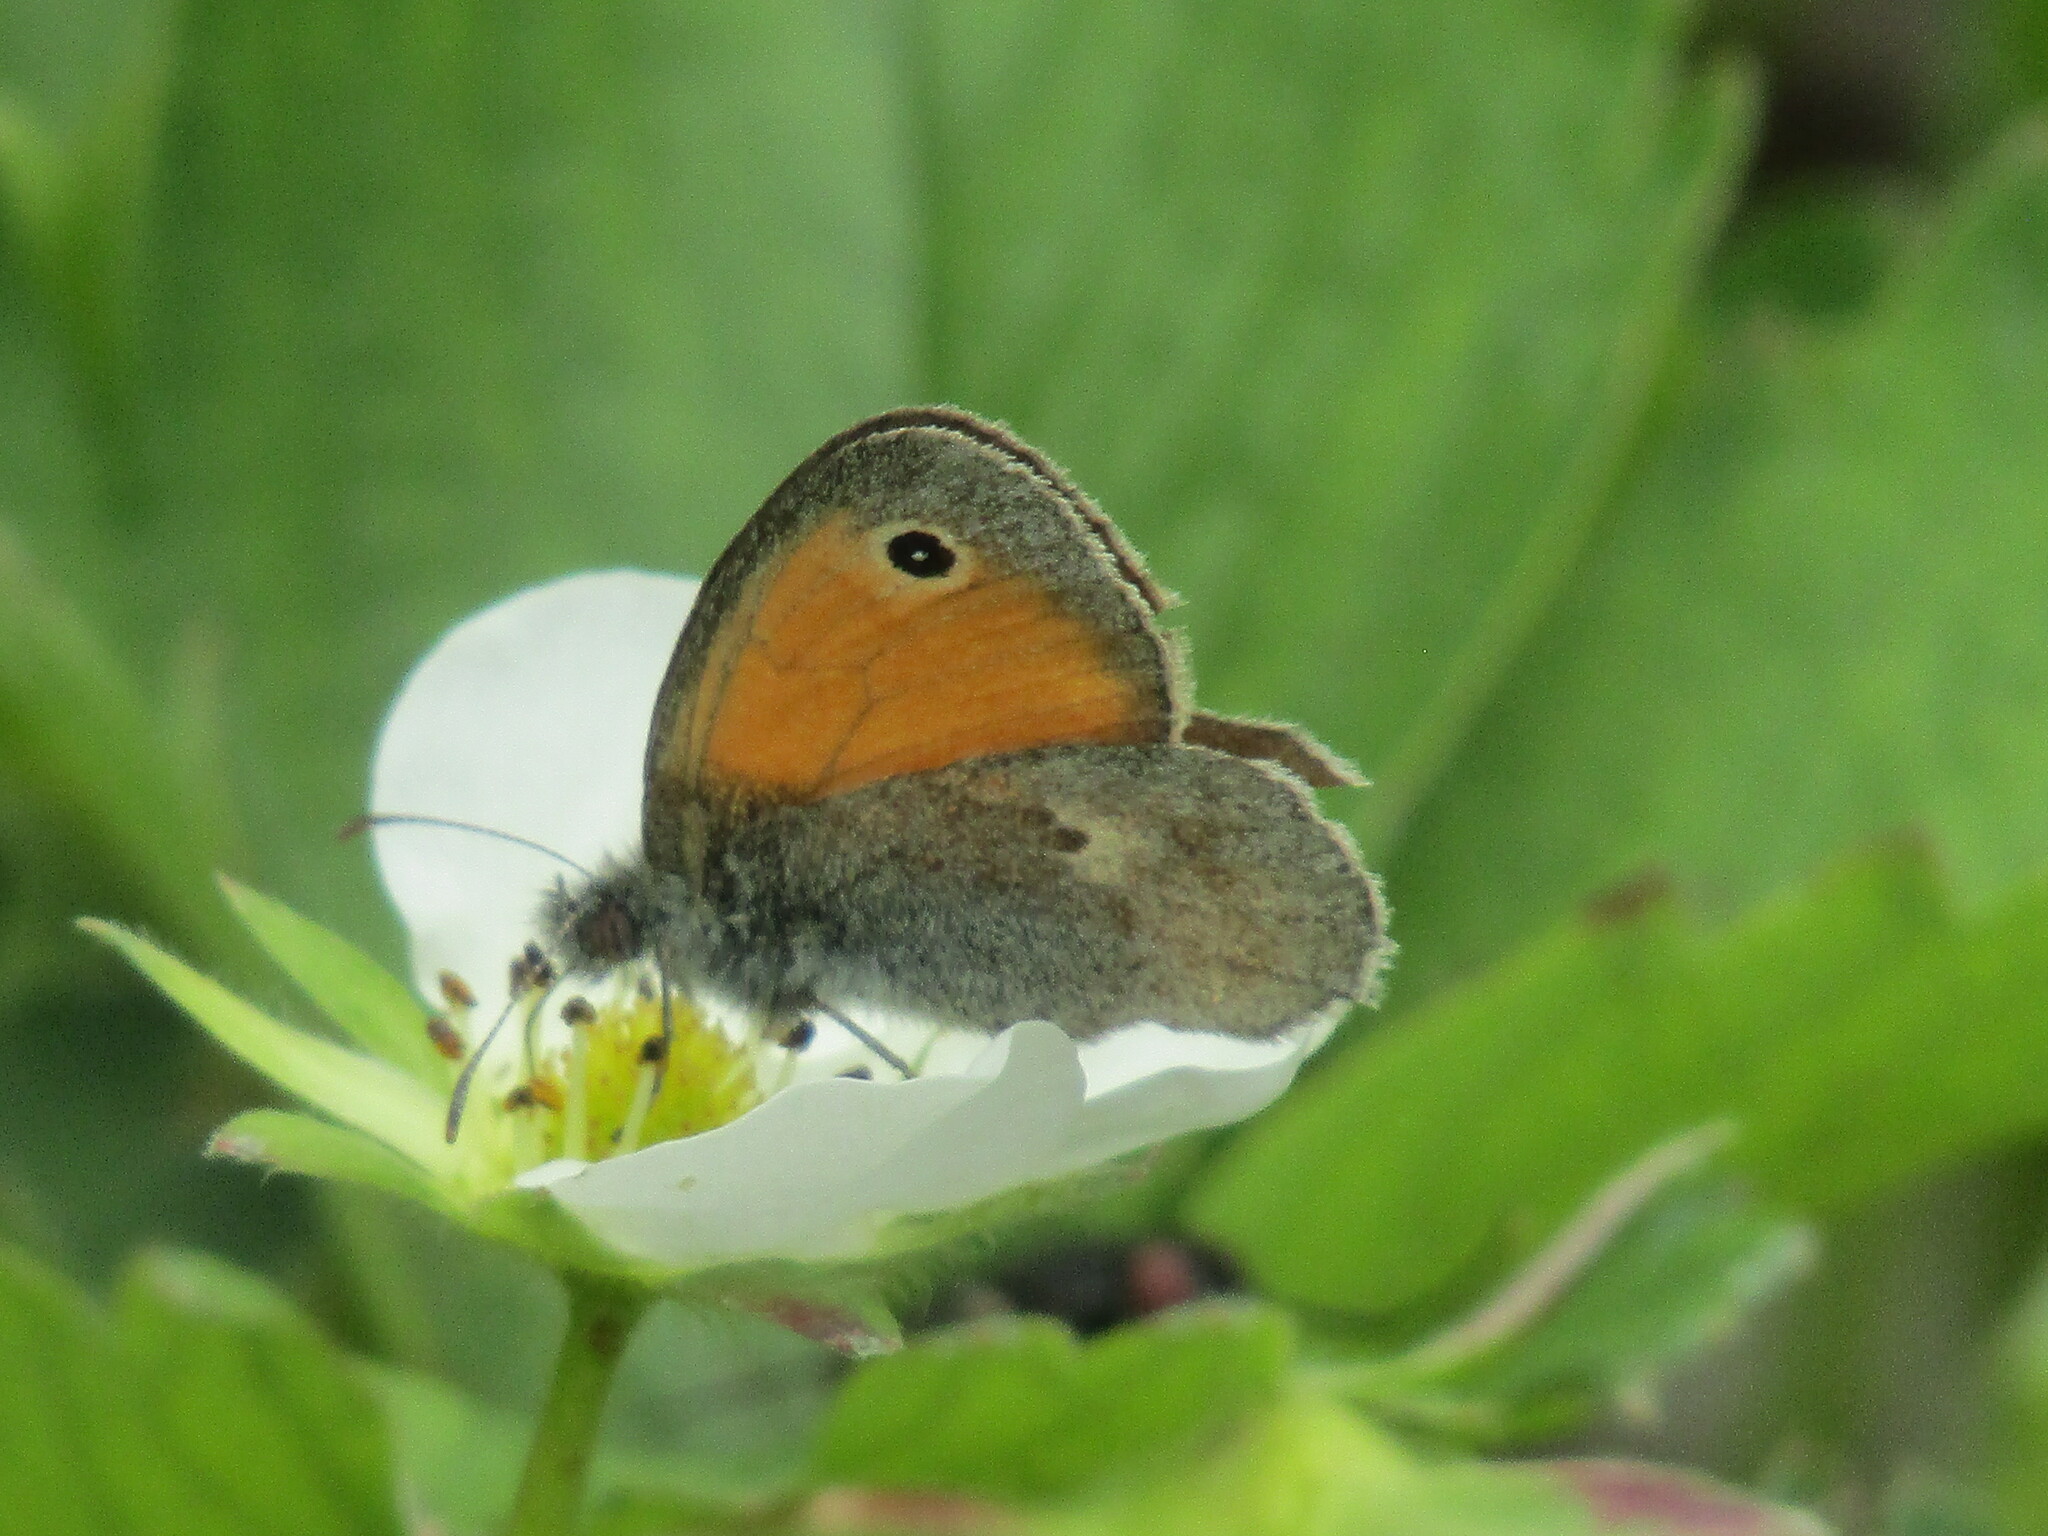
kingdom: Animalia
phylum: Arthropoda
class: Insecta
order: Lepidoptera
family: Nymphalidae
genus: Coenonympha
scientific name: Coenonympha pamphilus
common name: Small heath
